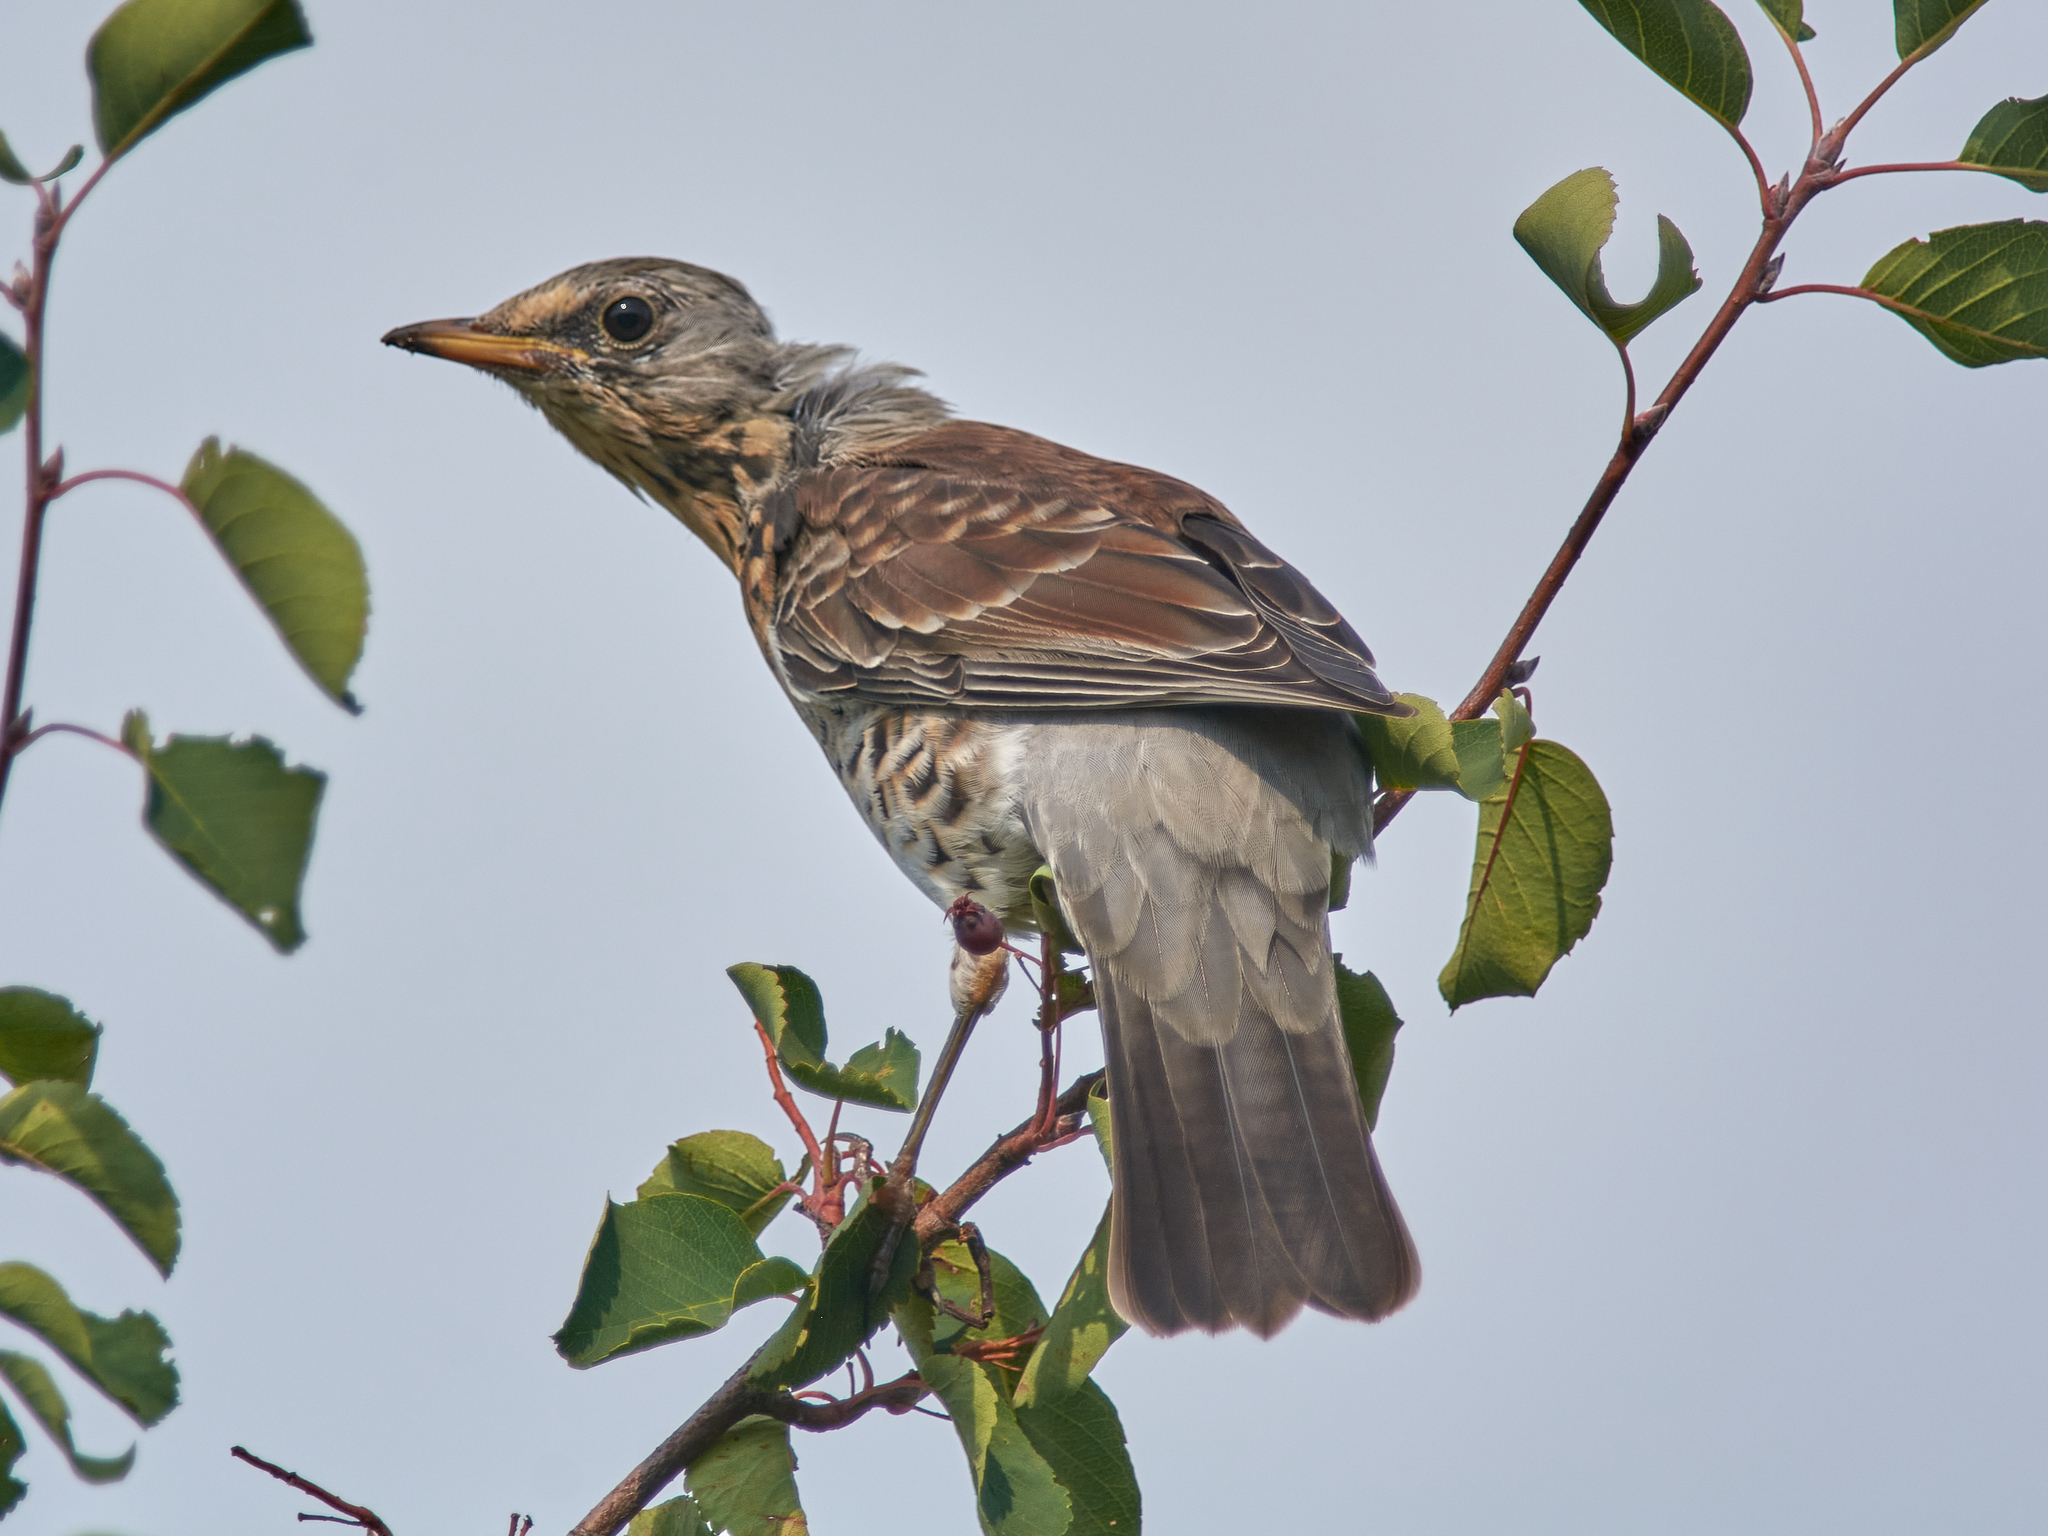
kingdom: Animalia
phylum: Chordata
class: Aves
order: Passeriformes
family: Turdidae
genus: Turdus
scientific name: Turdus pilaris
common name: Fieldfare
